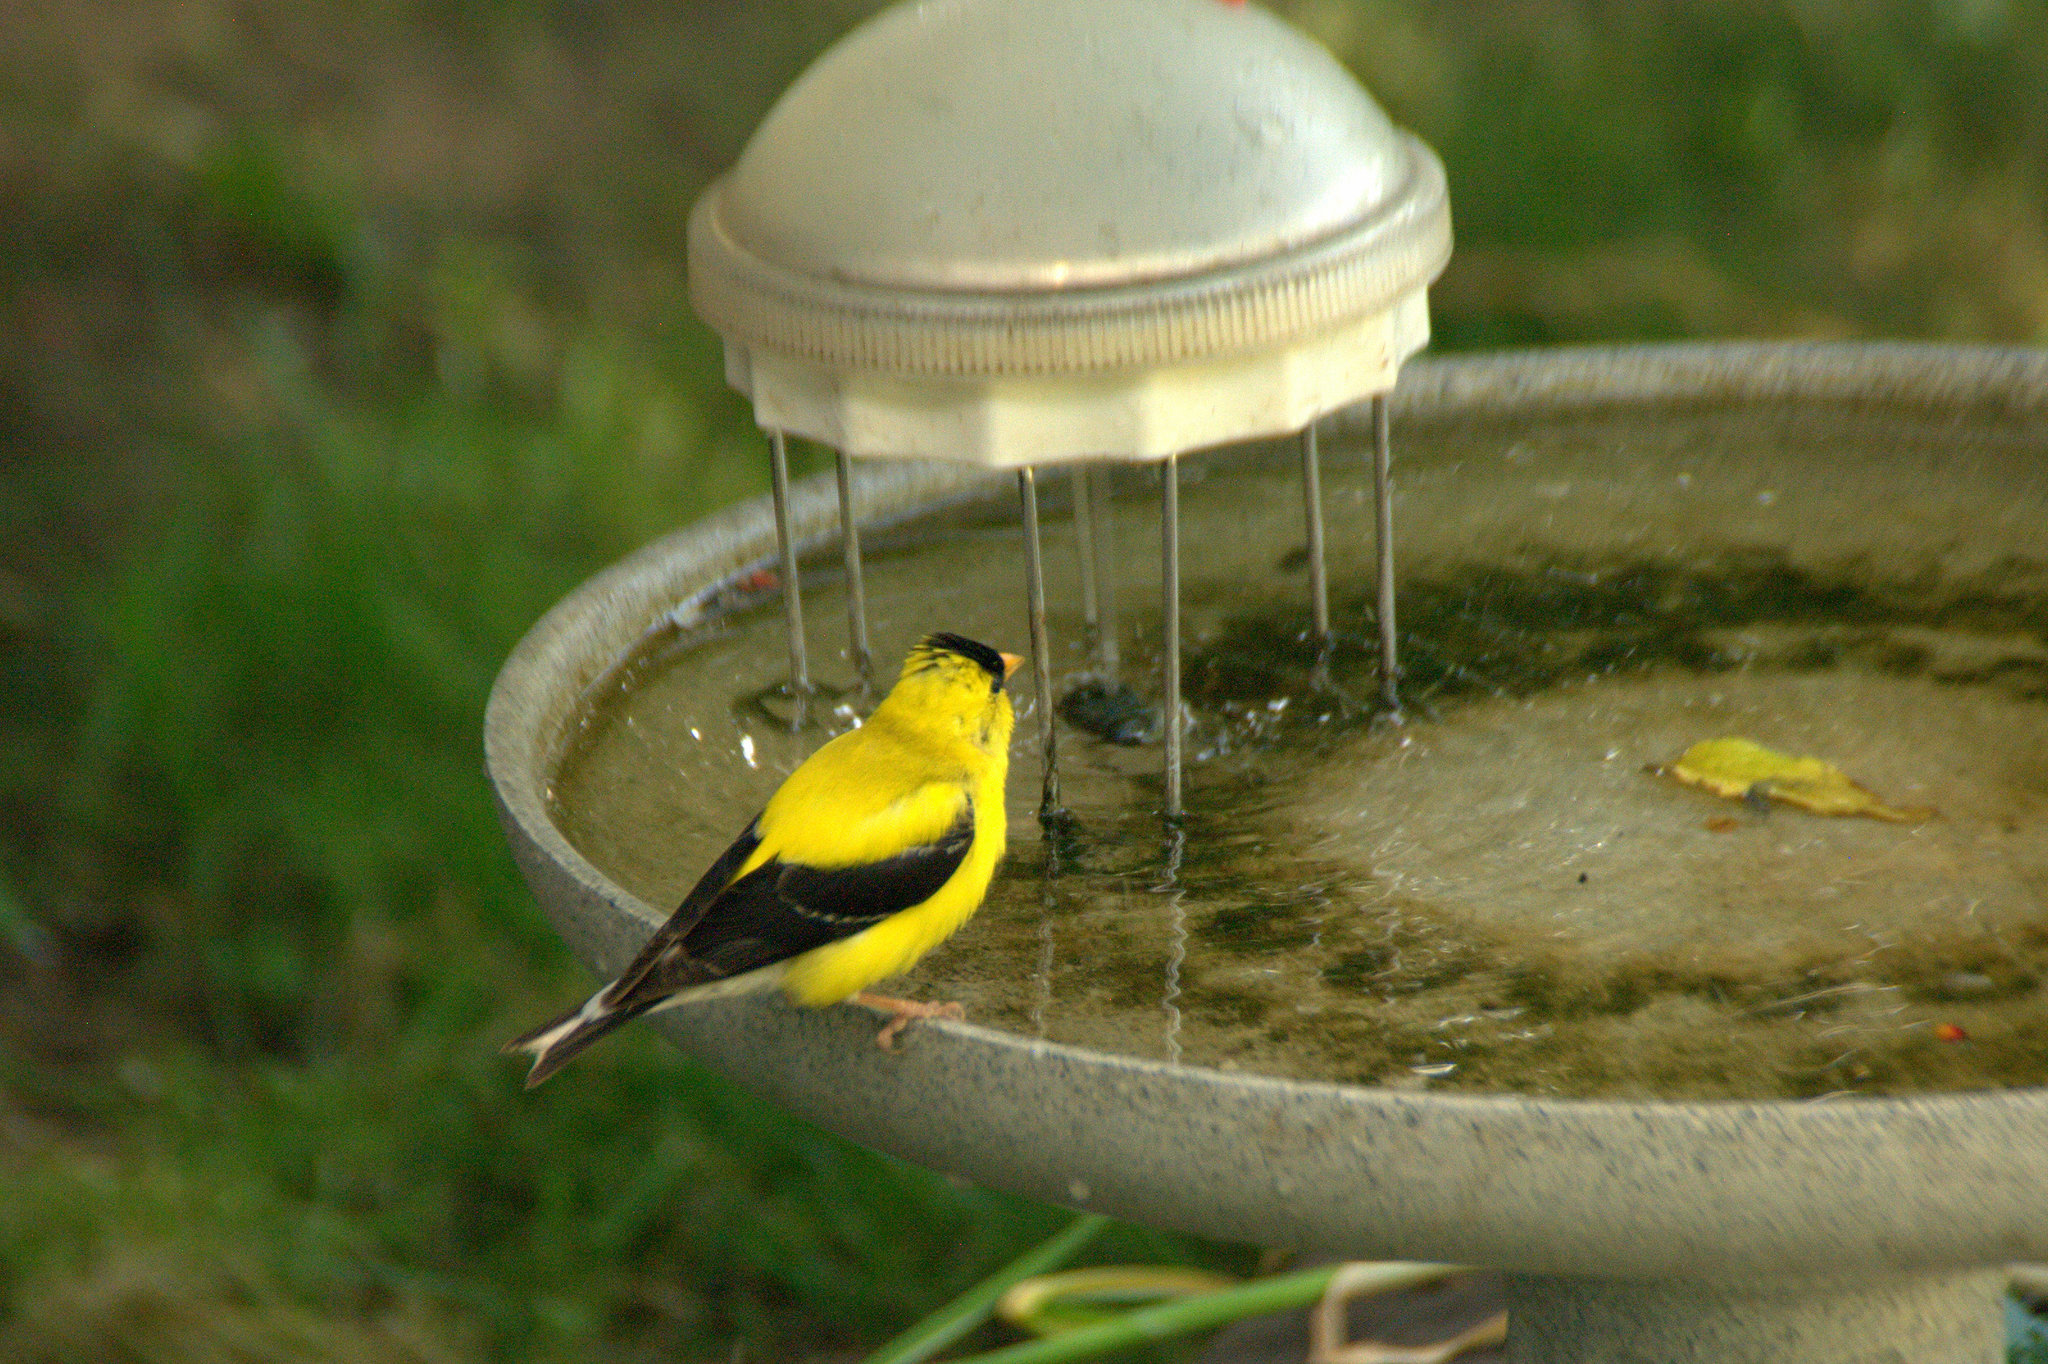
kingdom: Animalia
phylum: Chordata
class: Aves
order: Passeriformes
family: Fringillidae
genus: Spinus
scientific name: Spinus tristis
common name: American goldfinch
